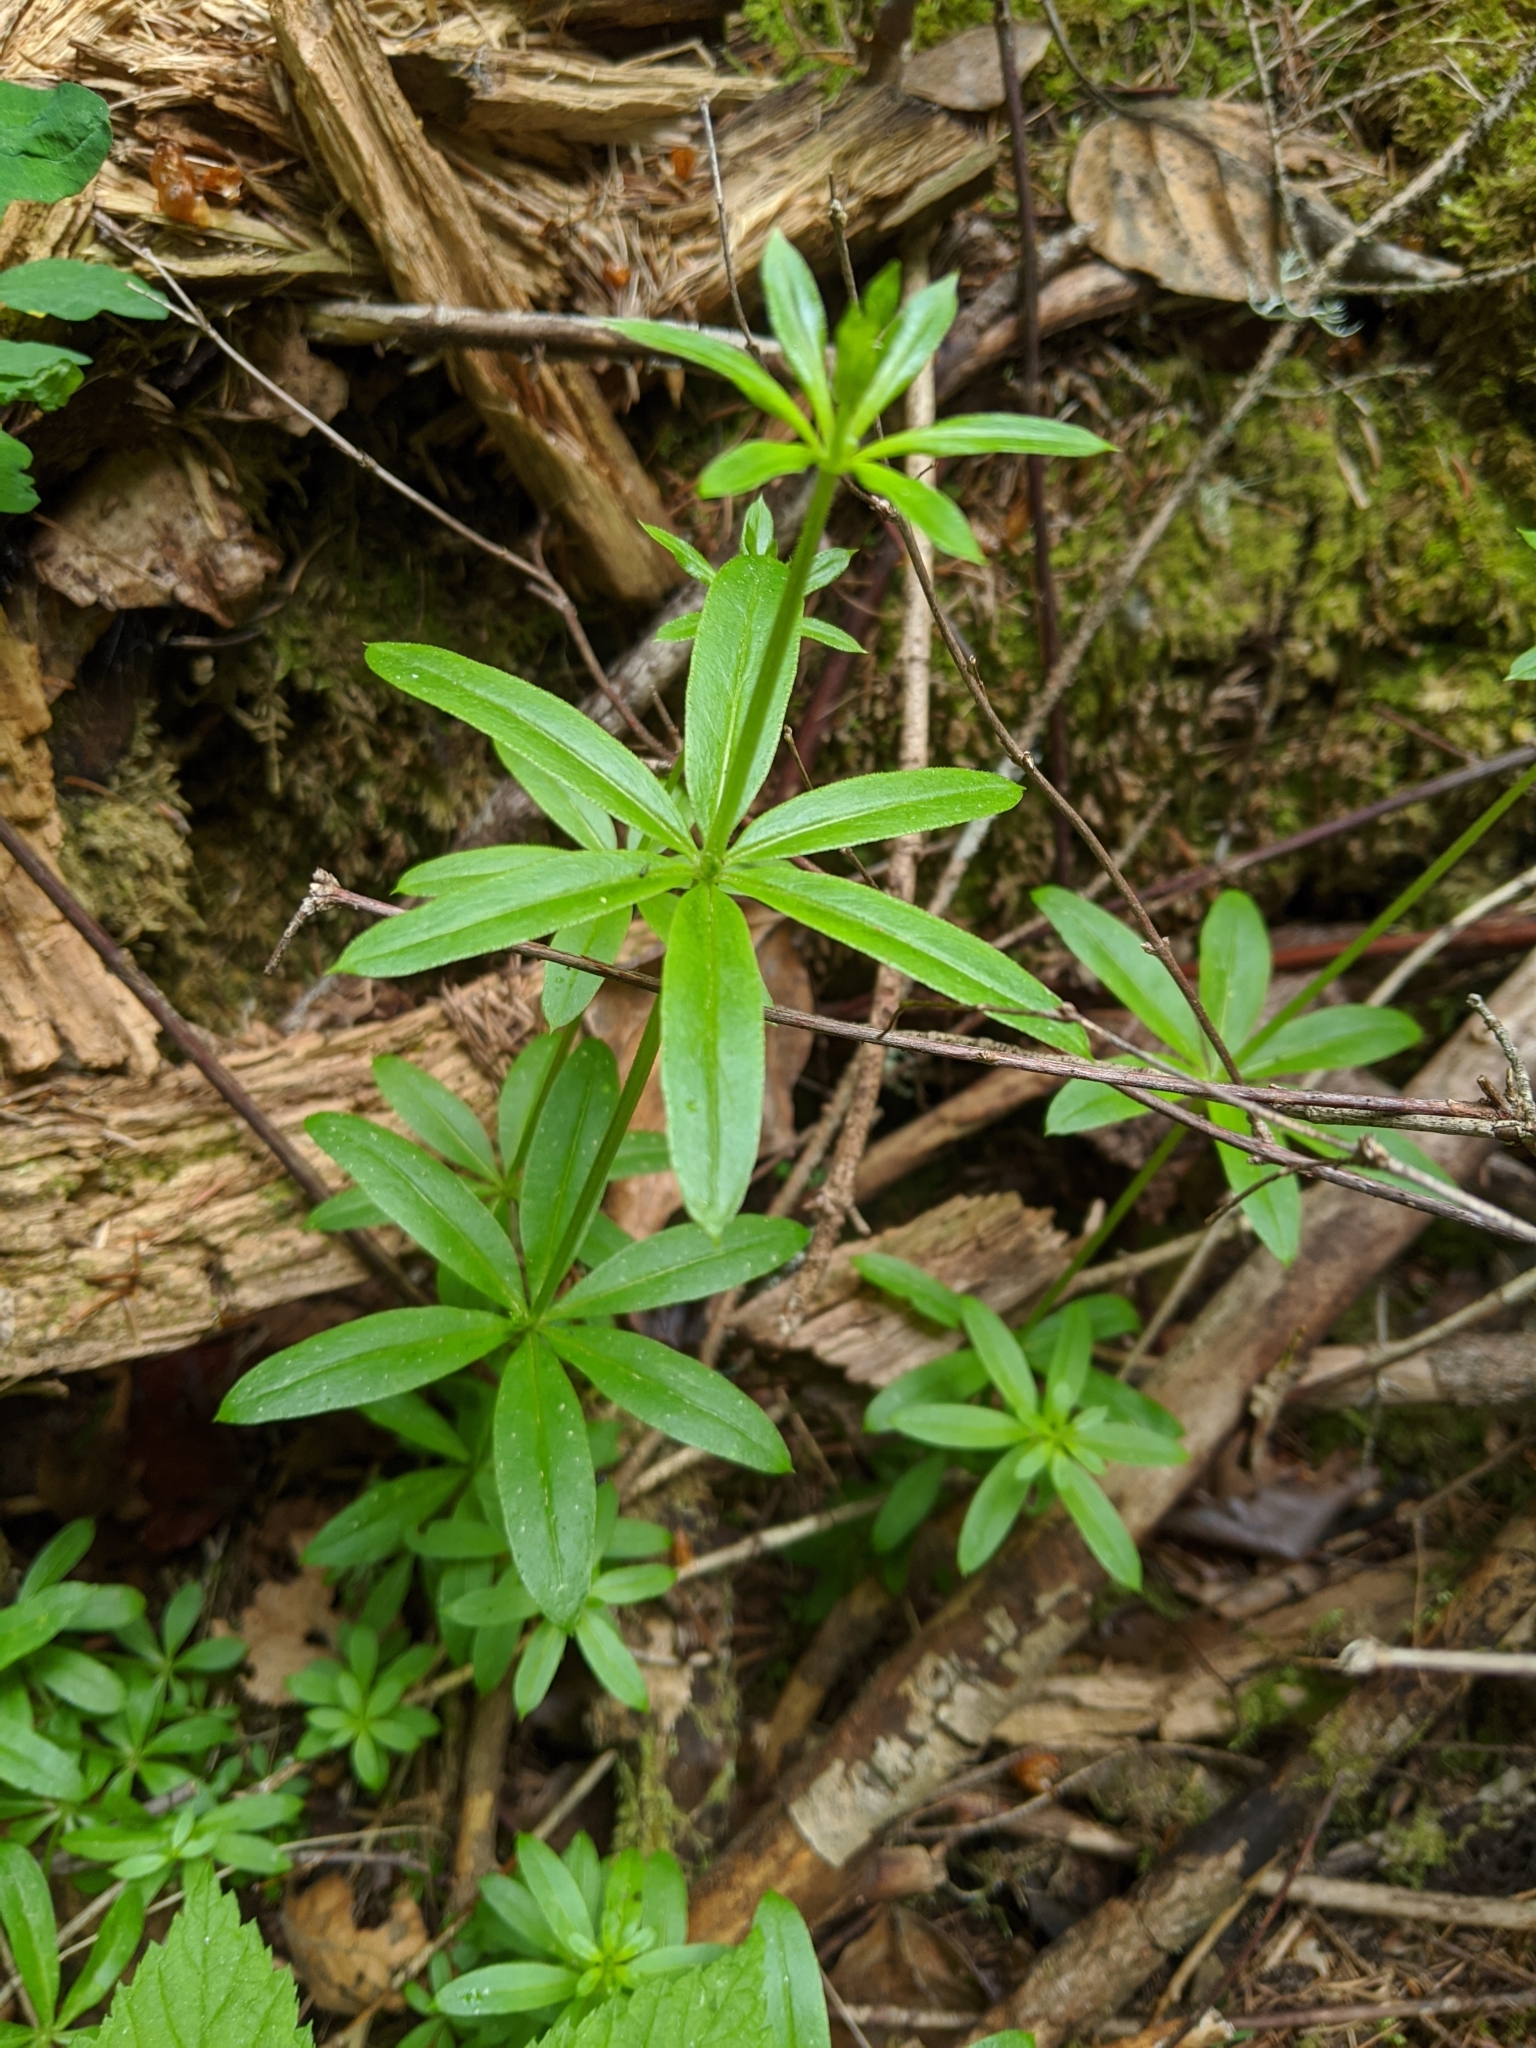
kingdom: Plantae
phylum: Tracheophyta
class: Magnoliopsida
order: Gentianales
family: Rubiaceae
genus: Galium
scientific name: Galium triflorum
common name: Fragrant bedstraw
